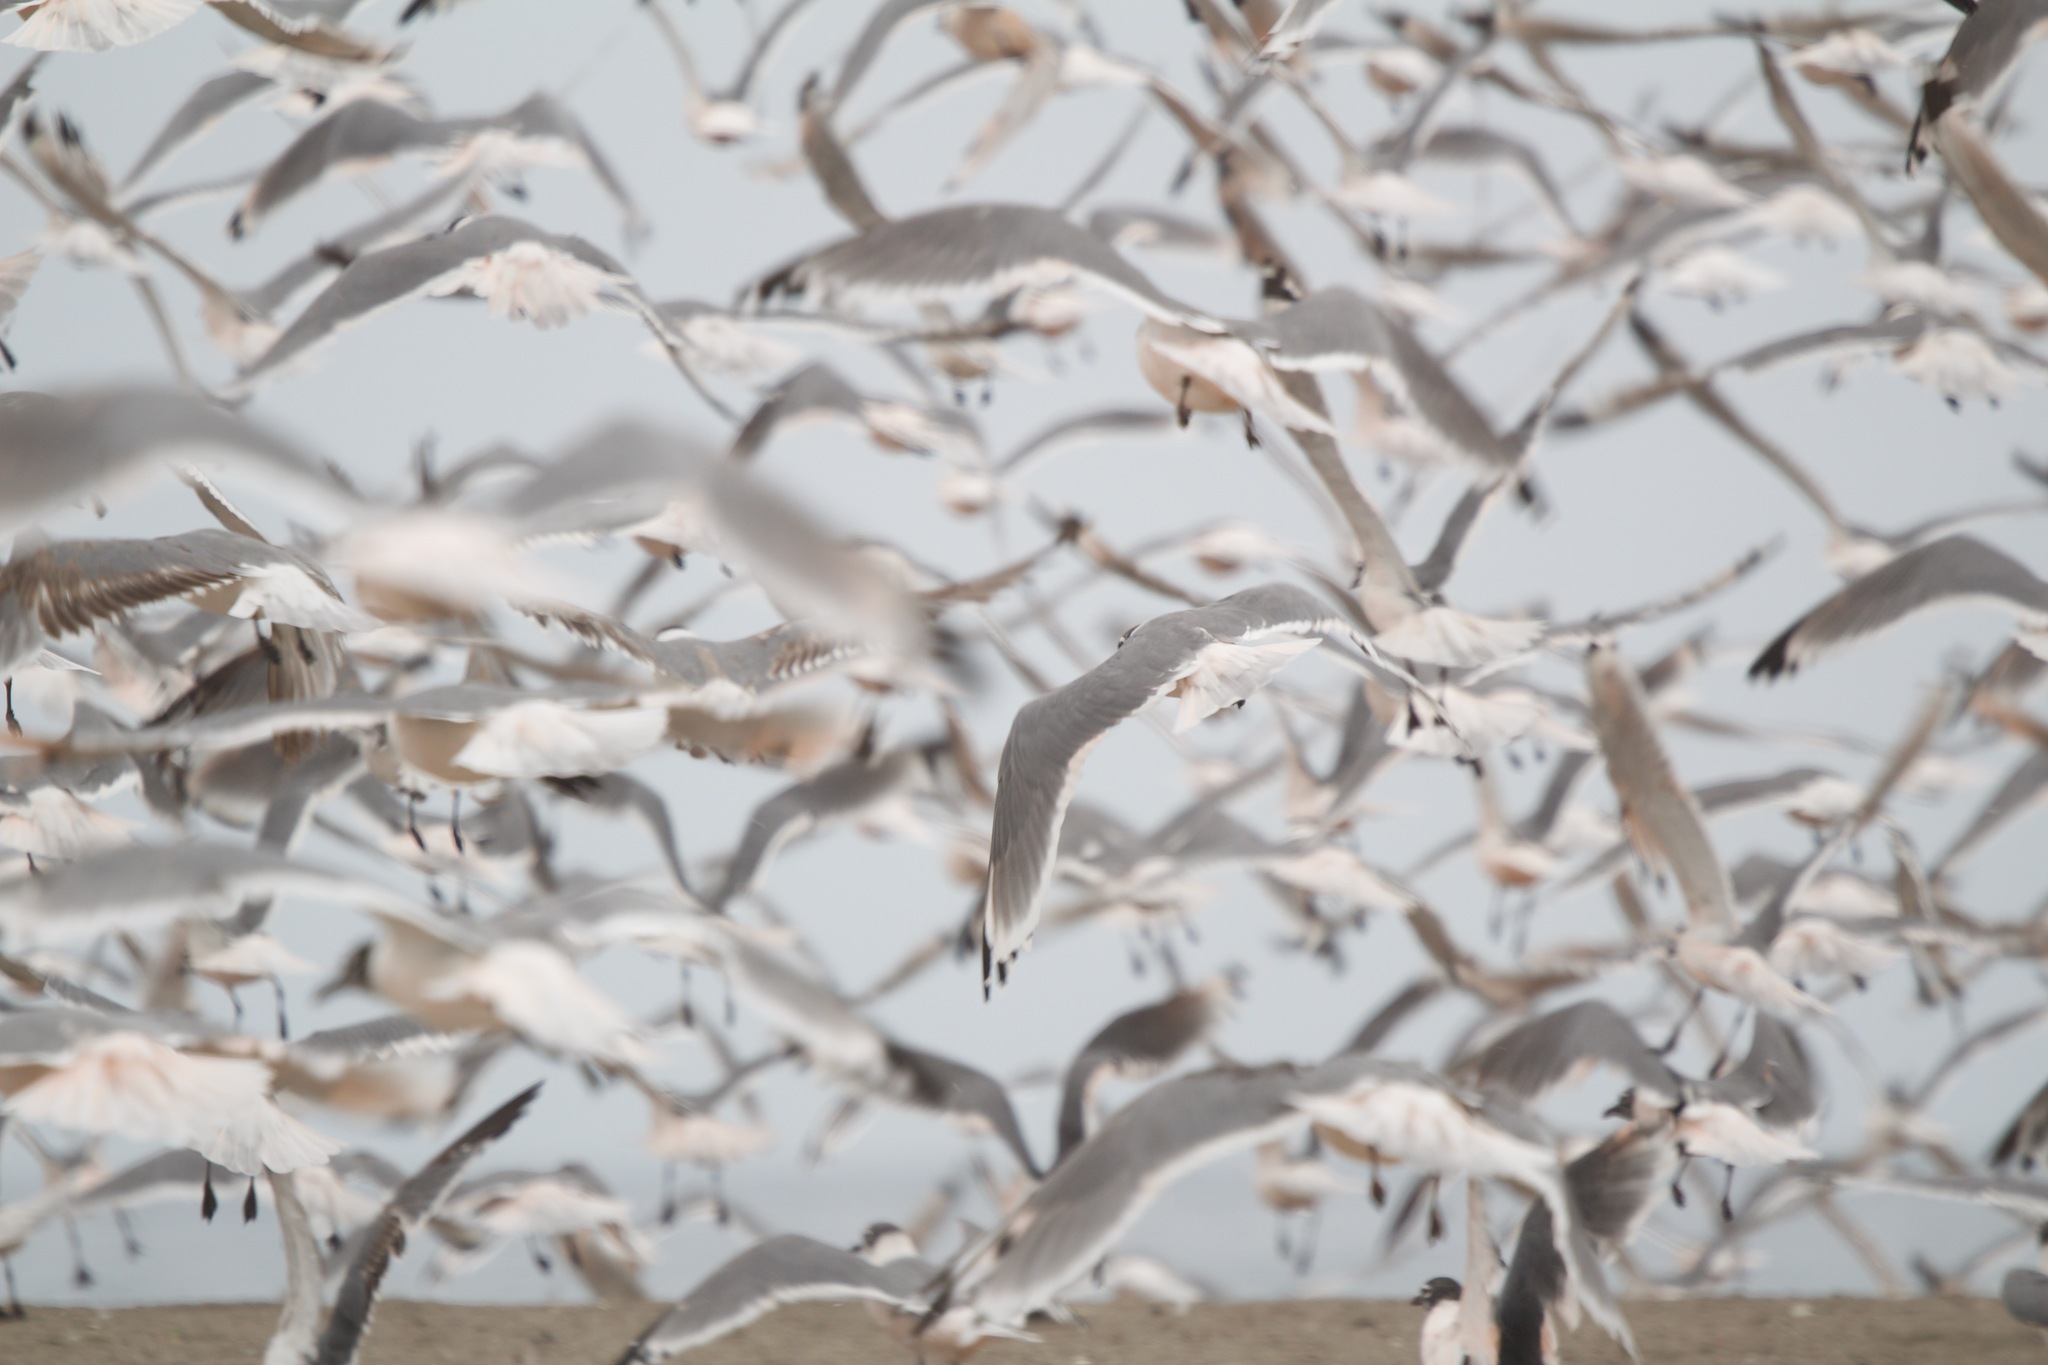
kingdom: Animalia
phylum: Chordata
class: Aves
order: Charadriiformes
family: Laridae
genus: Leucophaeus
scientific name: Leucophaeus pipixcan
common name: Franklin's gull
